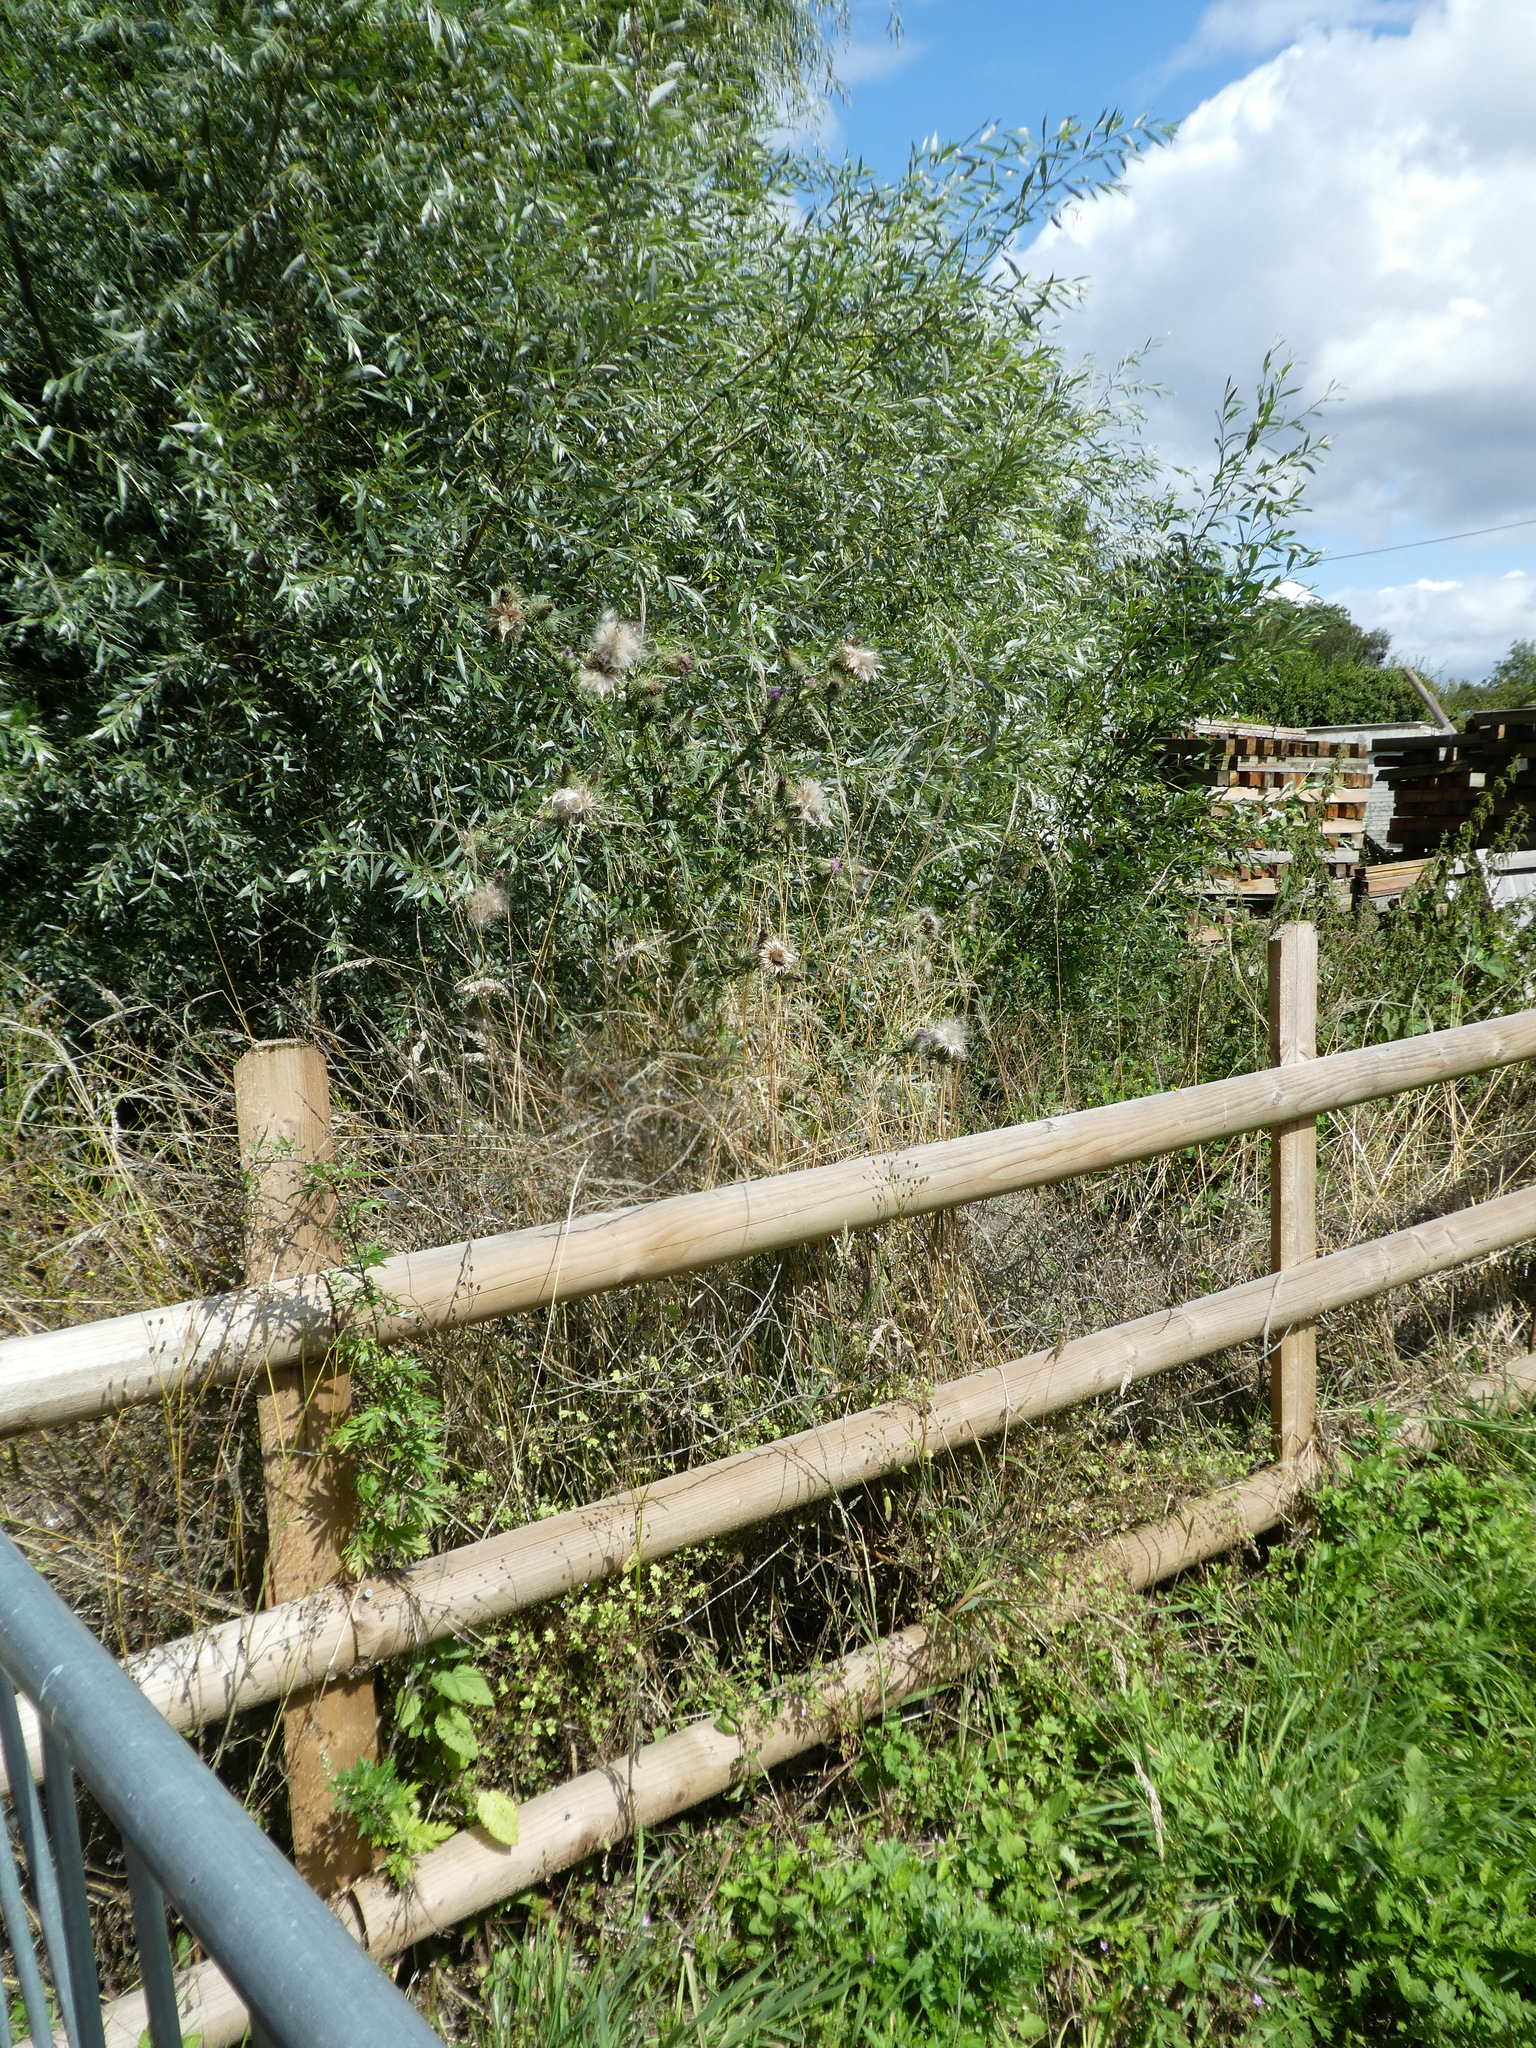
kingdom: Plantae
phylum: Tracheophyta
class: Magnoliopsida
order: Asterales
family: Asteraceae
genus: Cirsium
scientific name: Cirsium vulgare
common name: Bull thistle
